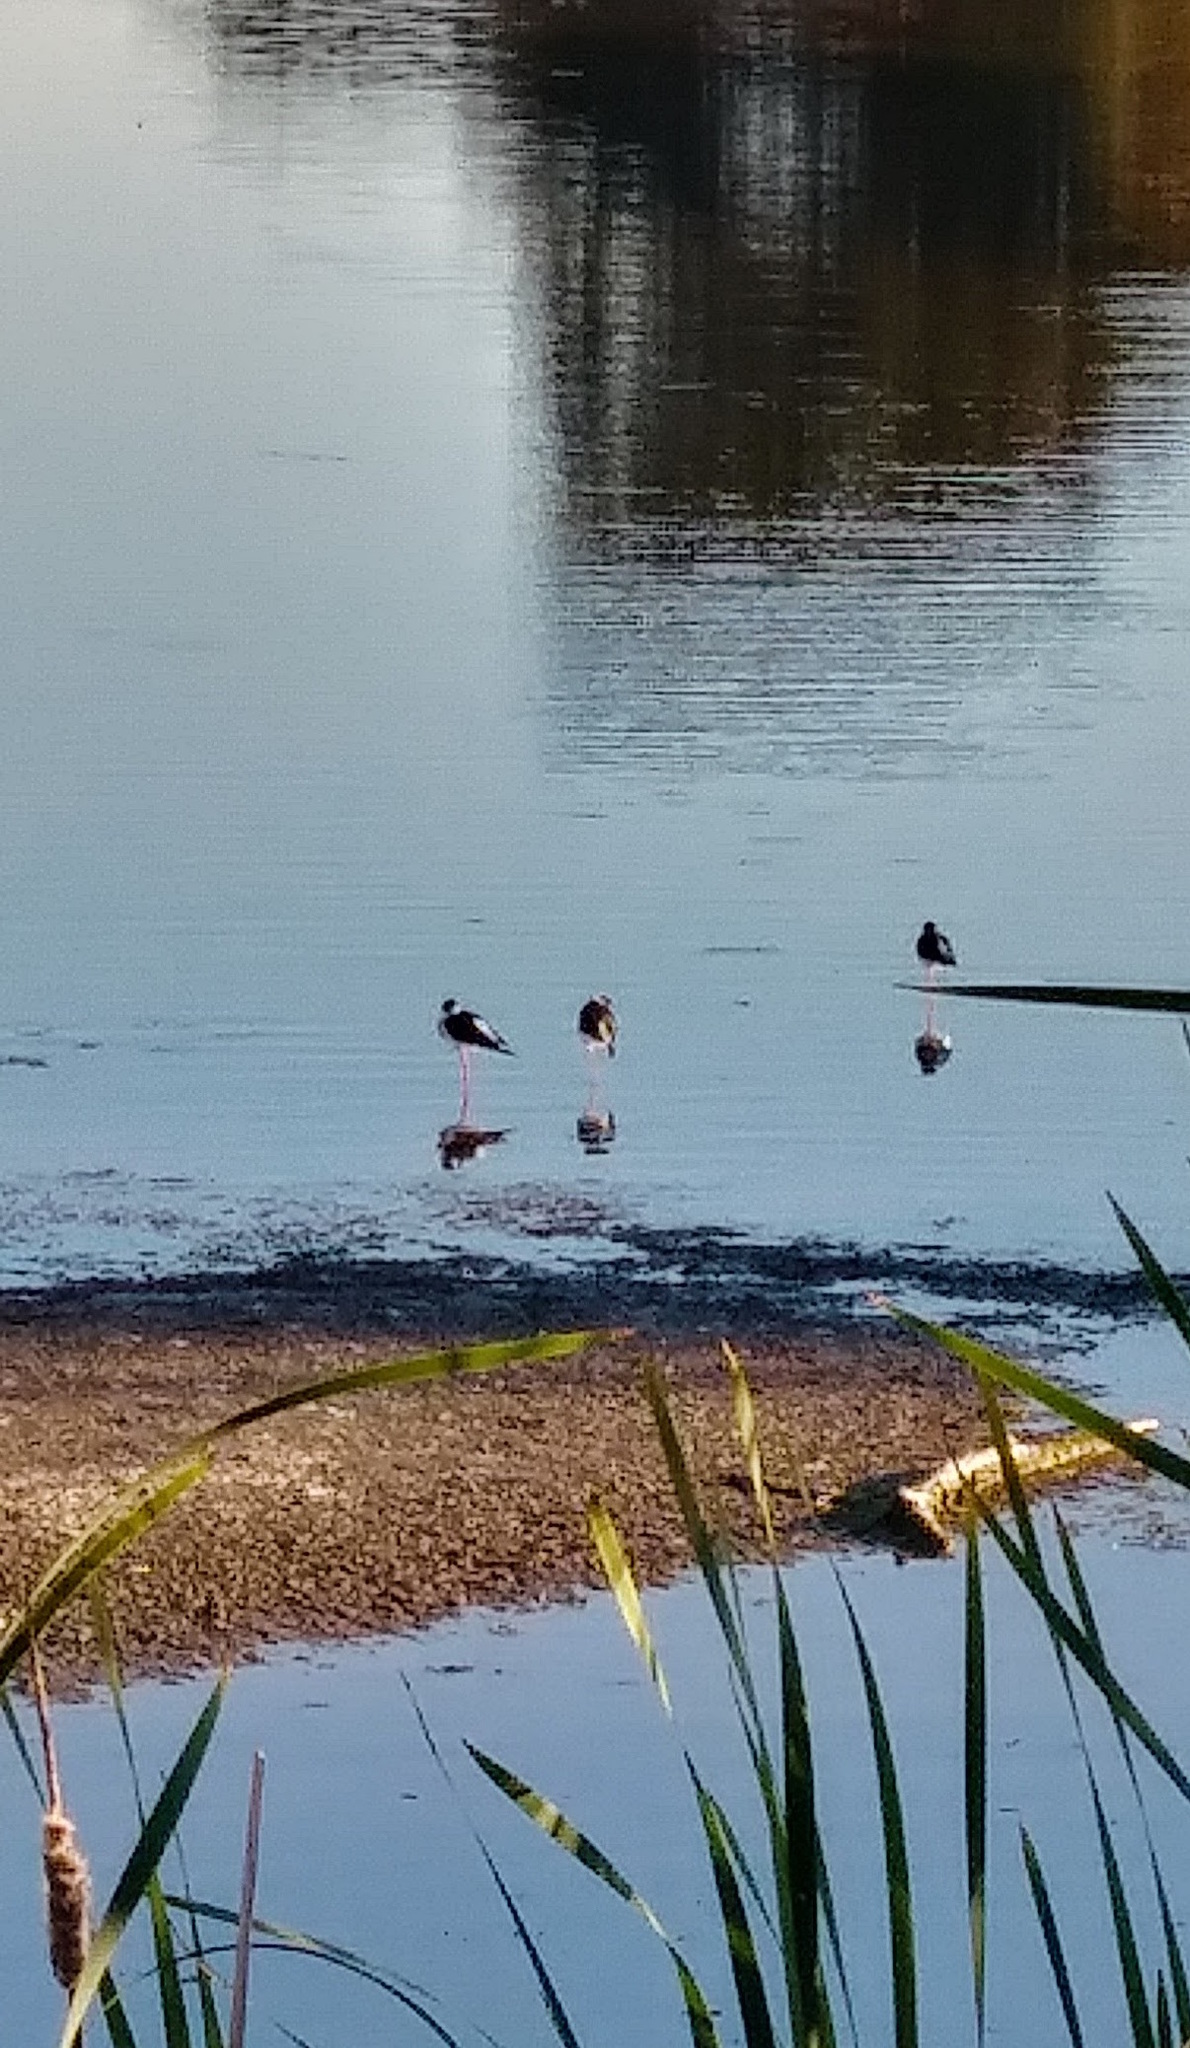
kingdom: Animalia
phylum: Chordata
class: Aves
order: Charadriiformes
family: Recurvirostridae
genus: Himantopus
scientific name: Himantopus mexicanus
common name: Black-necked stilt
